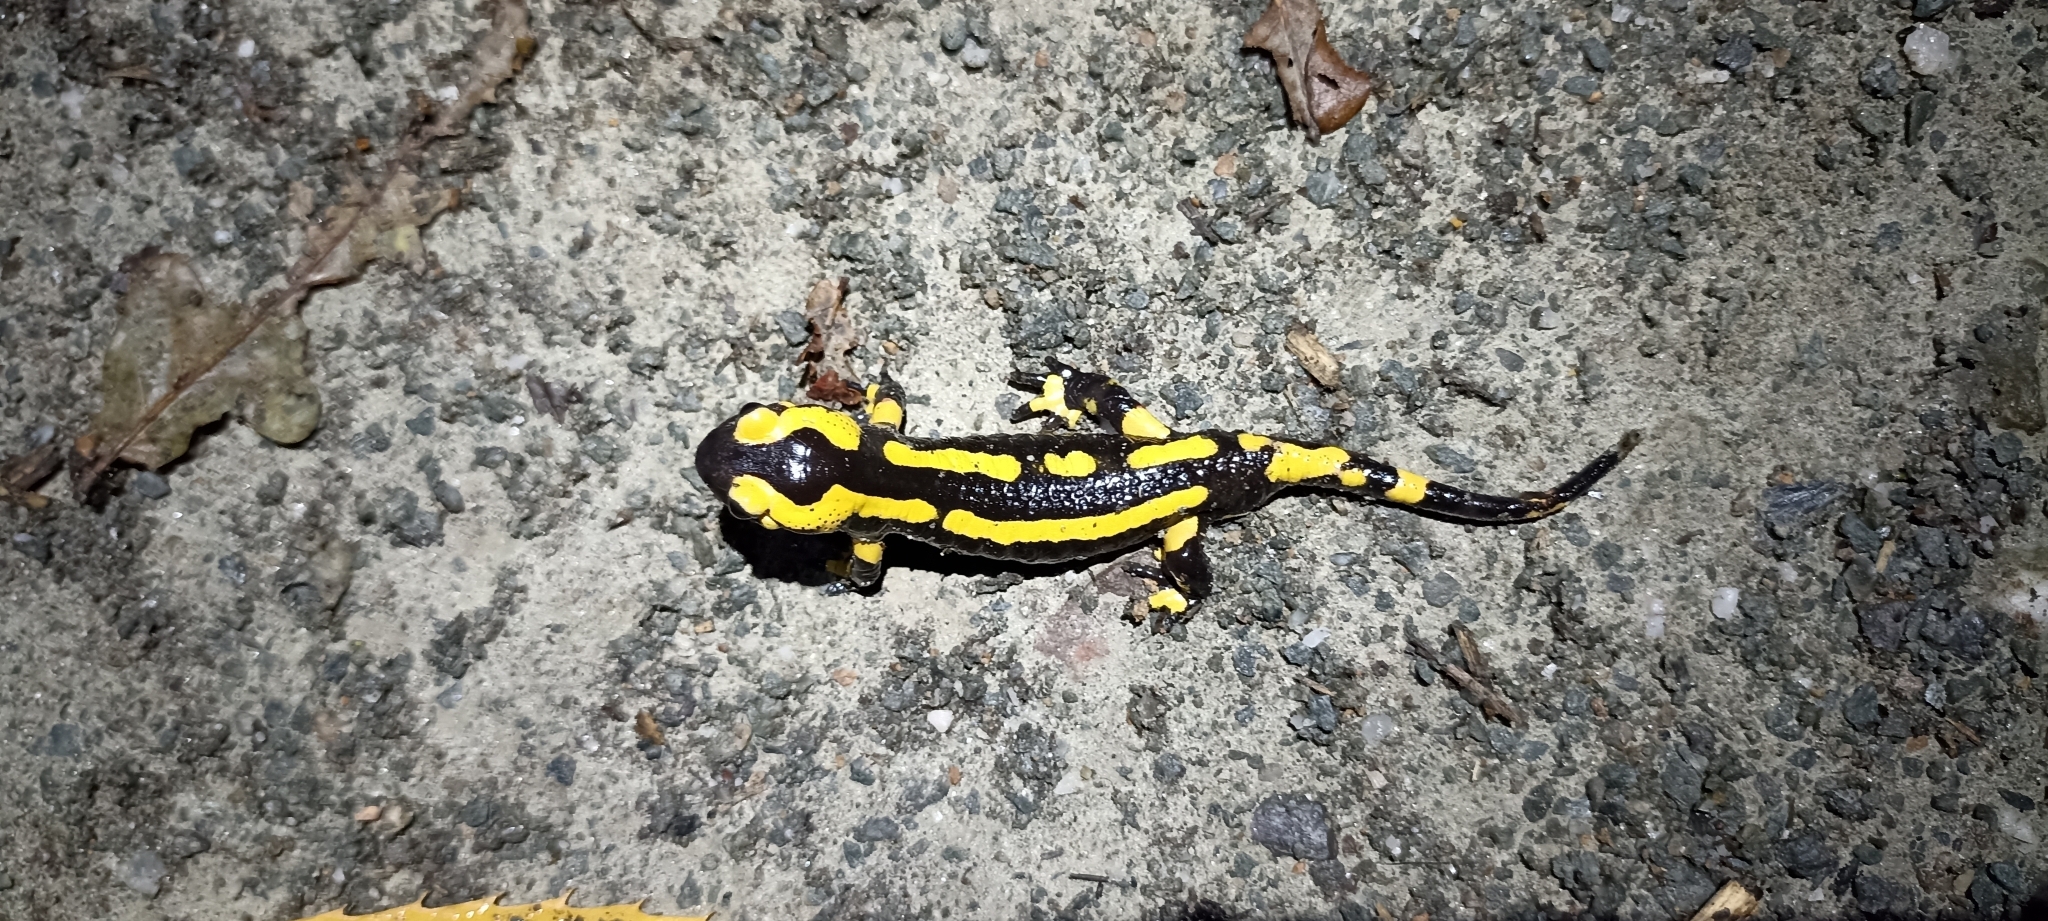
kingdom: Animalia
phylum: Chordata
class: Amphibia
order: Caudata
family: Salamandridae
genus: Salamandra
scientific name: Salamandra salamandra
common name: Fire salamander
